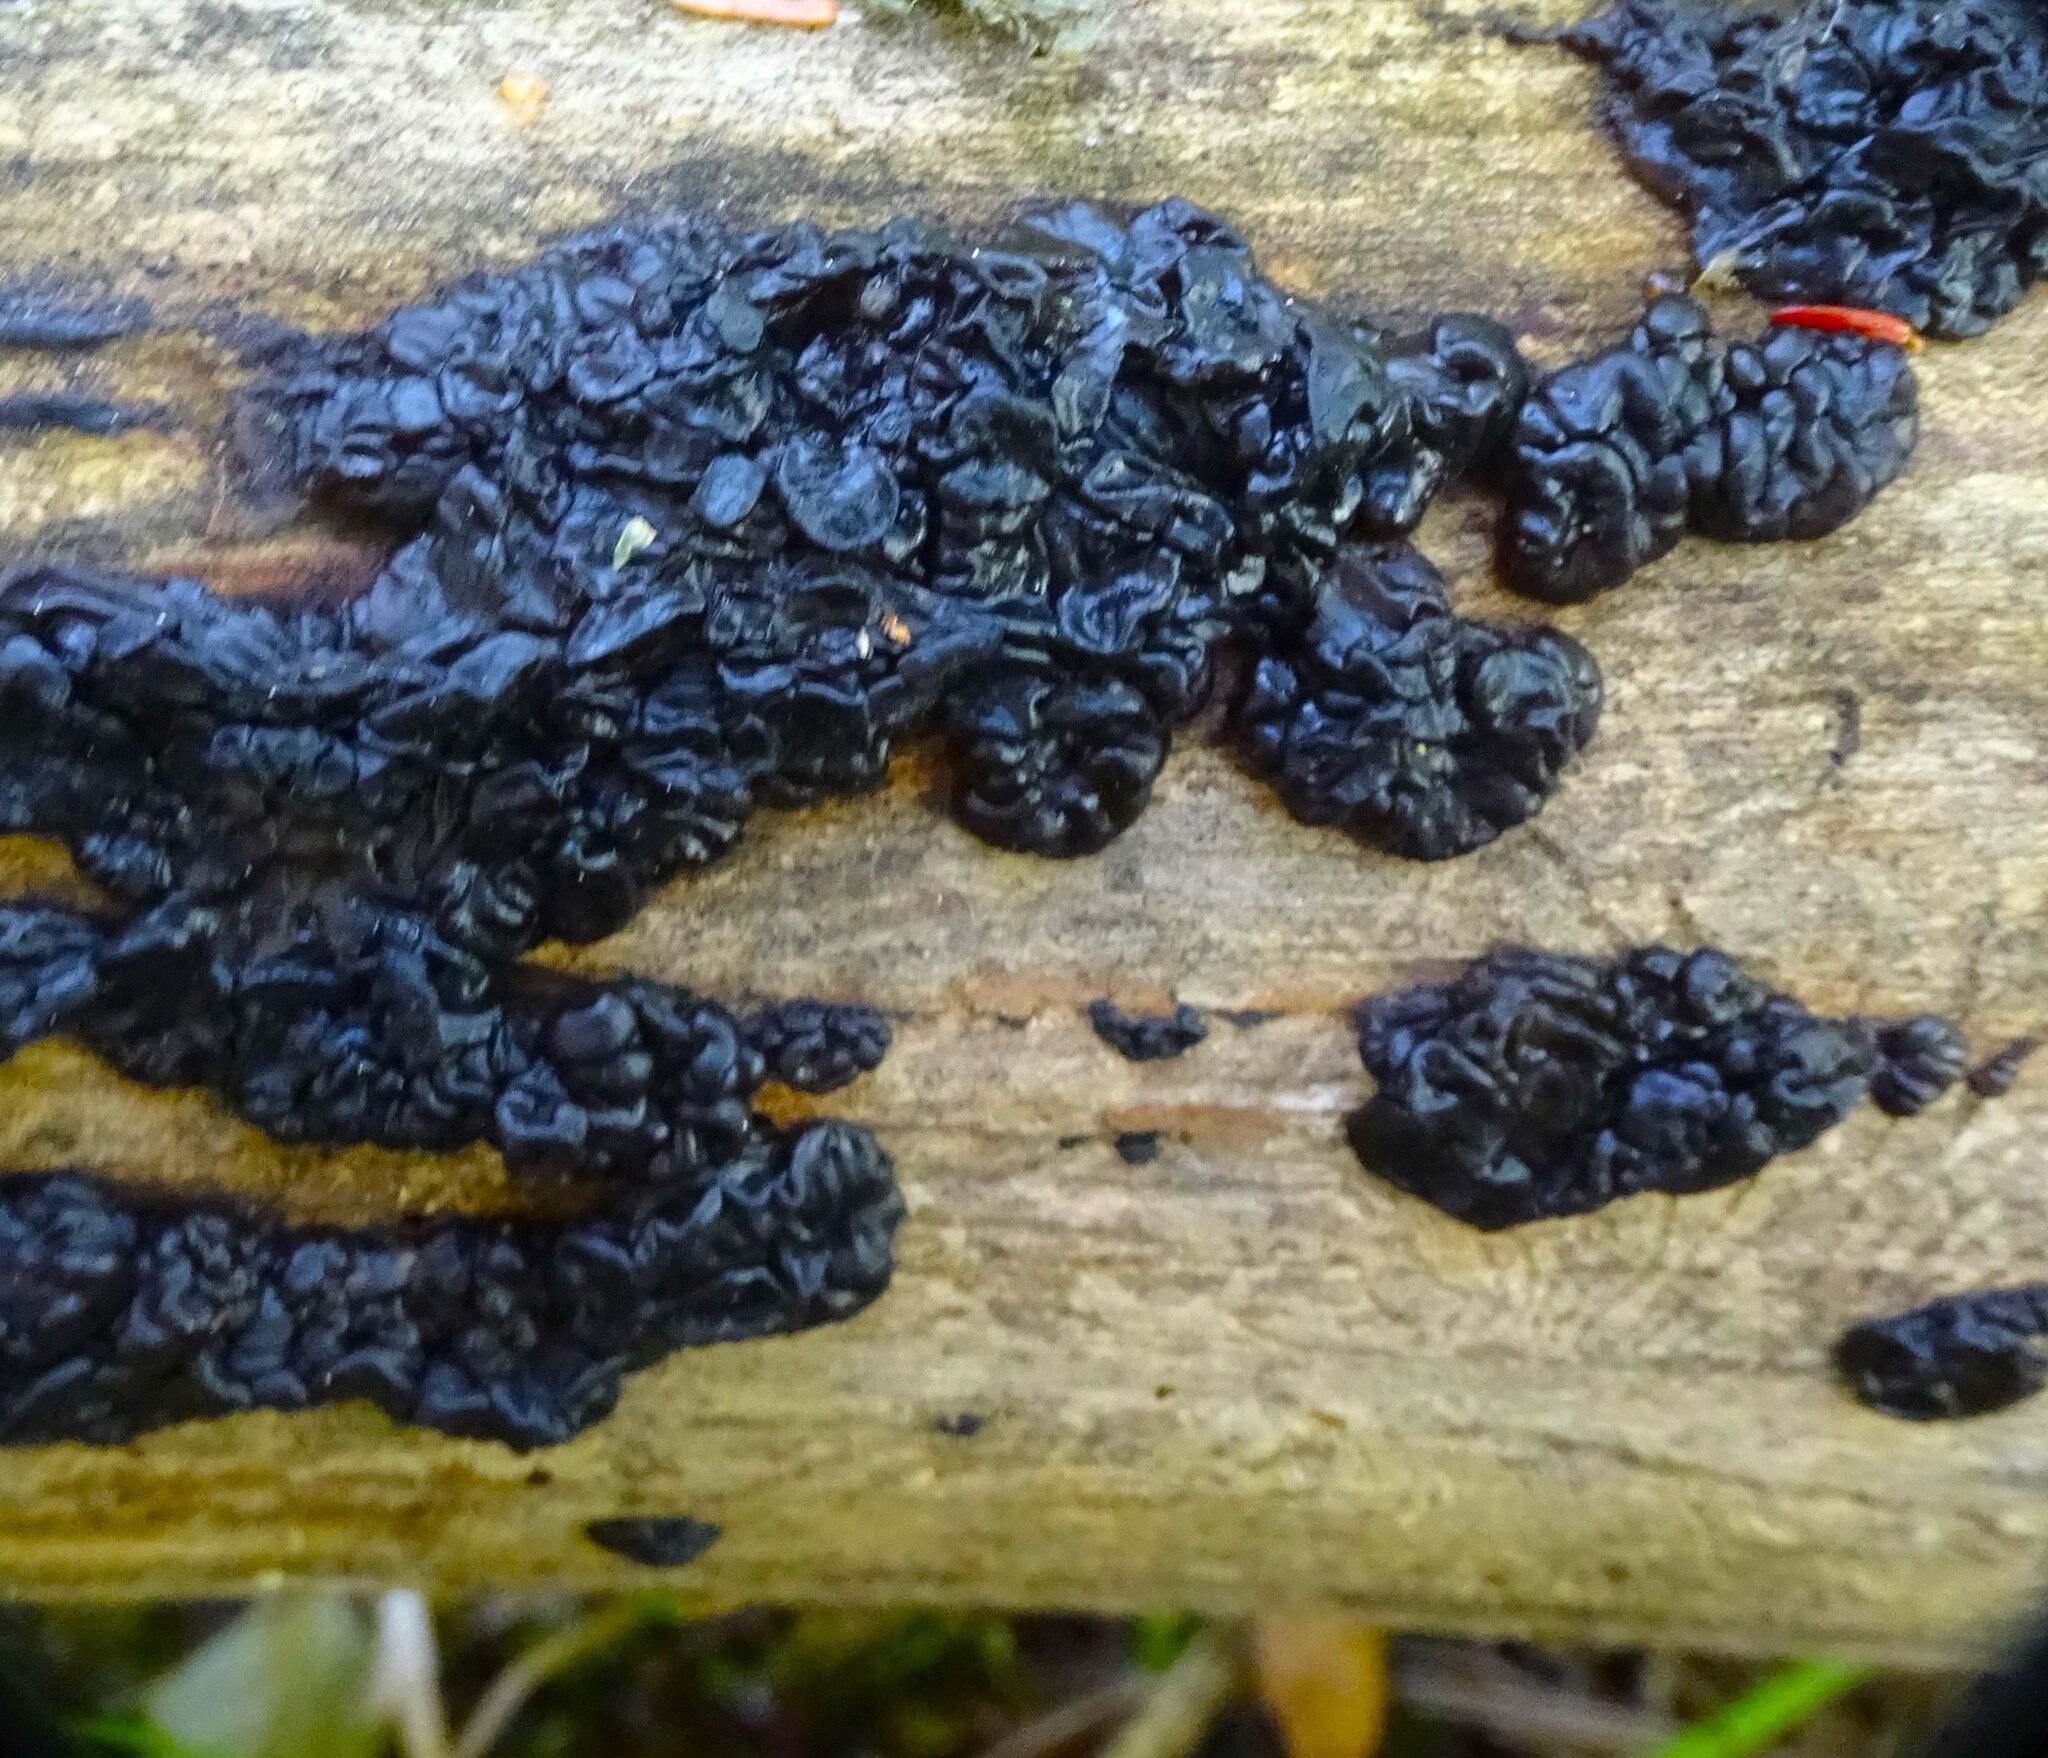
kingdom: Fungi
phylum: Basidiomycota
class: Agaricomycetes
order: Auriculariales
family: Auriculariaceae
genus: Exidia
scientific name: Exidia glandulosa
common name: Witches' butter
